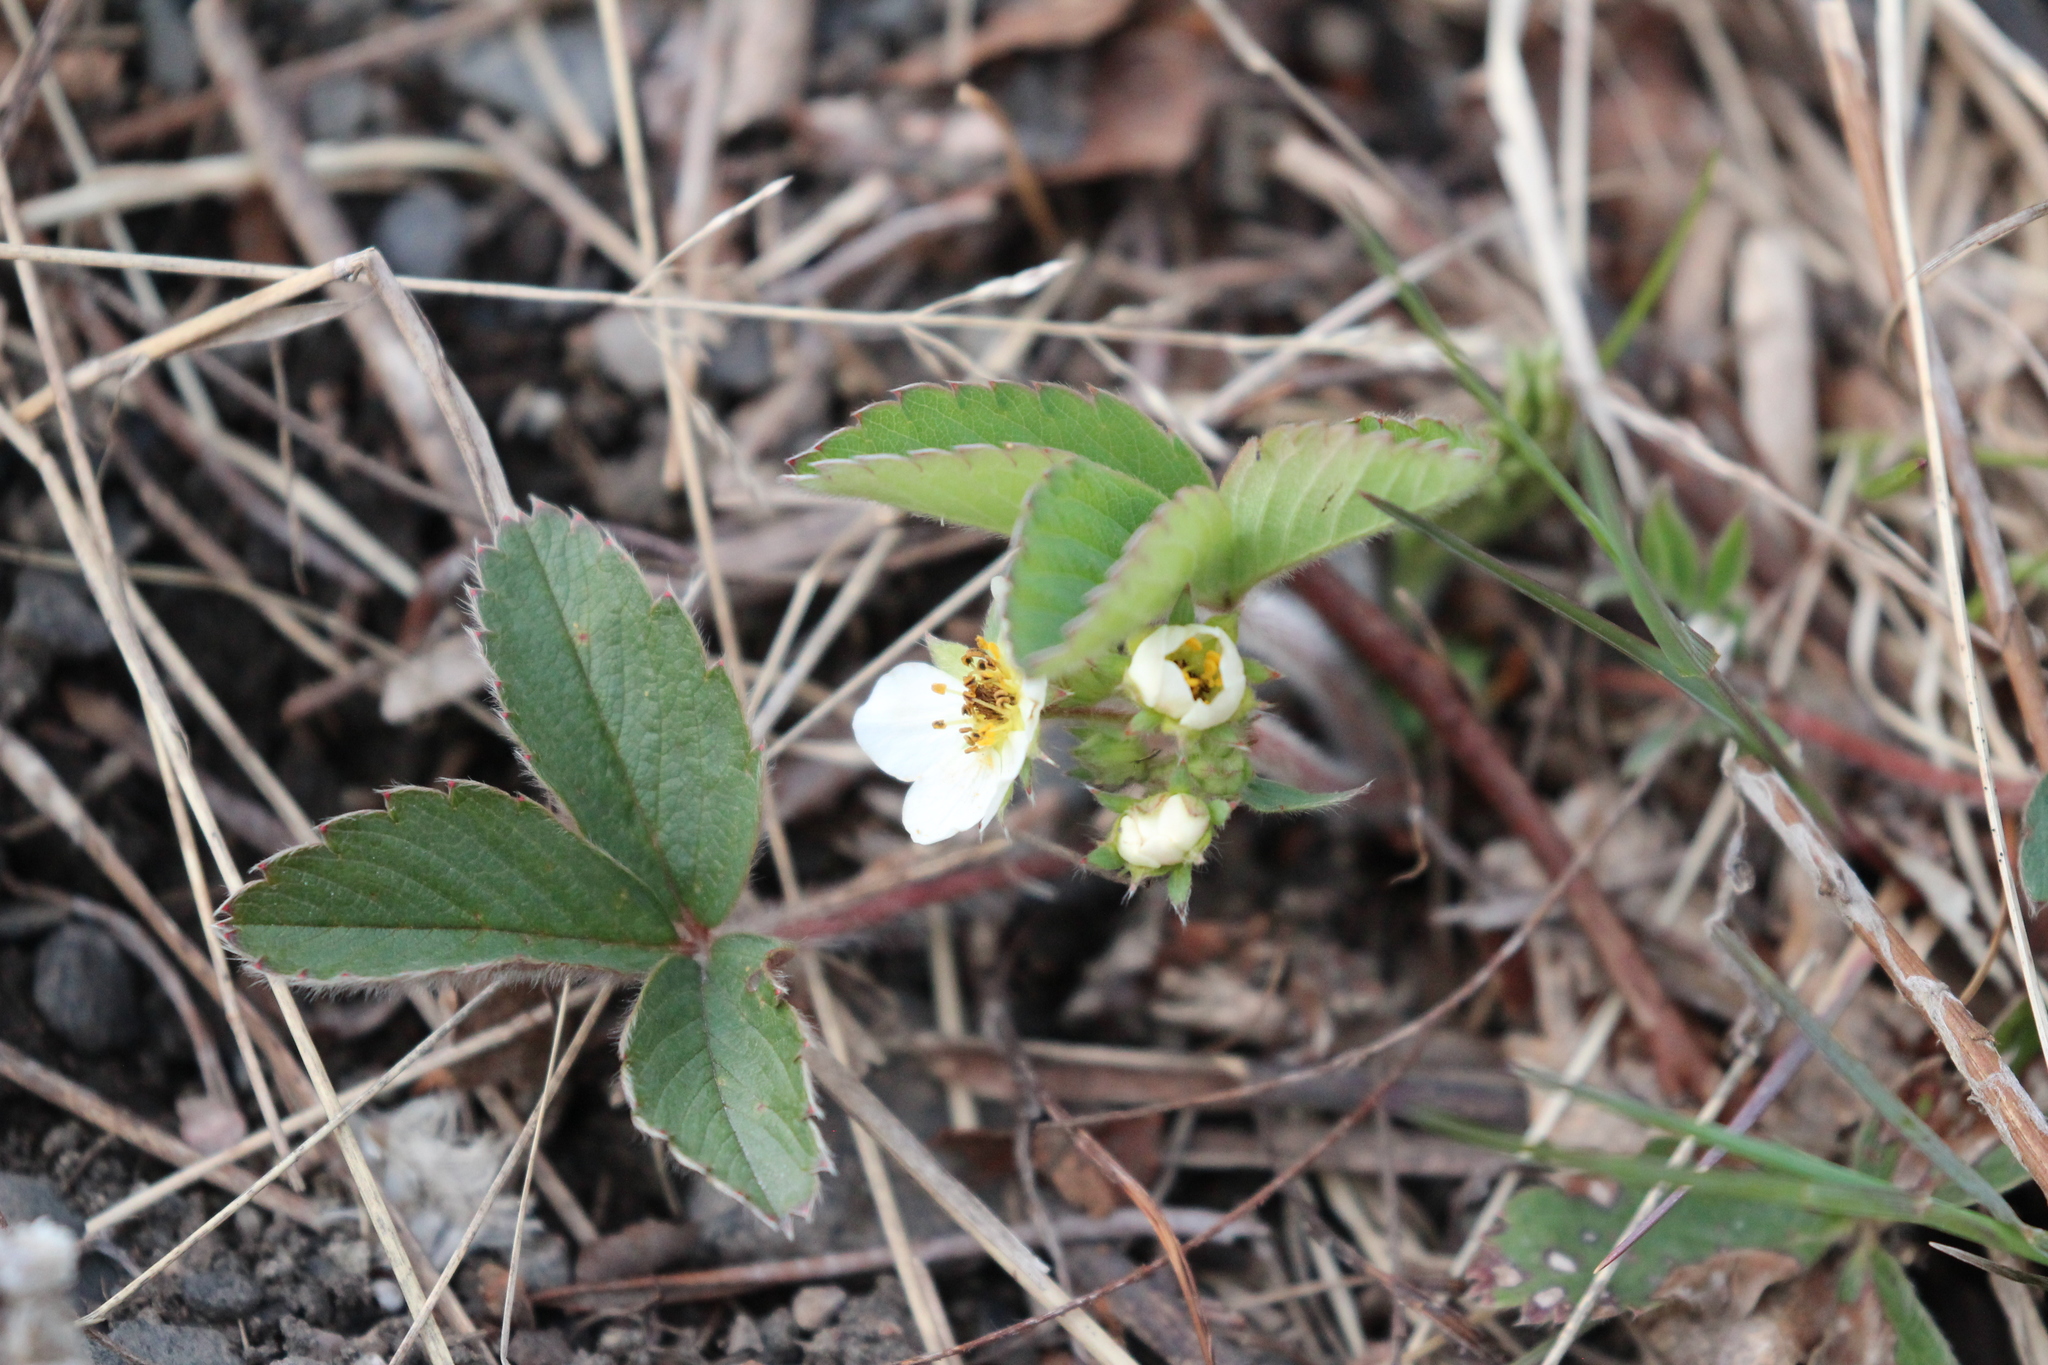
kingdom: Plantae
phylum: Tracheophyta
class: Magnoliopsida
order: Rosales
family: Rosaceae
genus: Fragaria
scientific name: Fragaria virginiana
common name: Thickleaved wild strawberry
